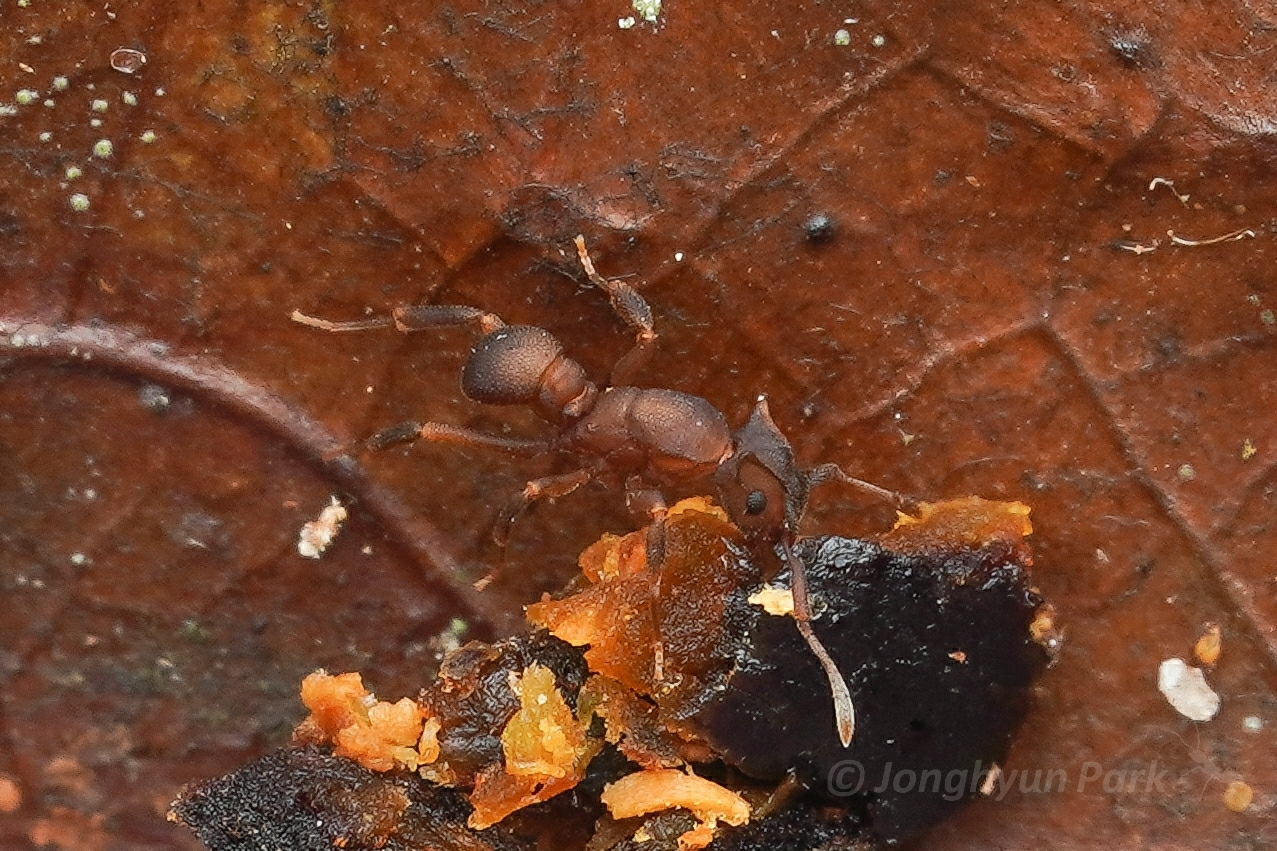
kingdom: Animalia
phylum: Arthropoda
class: Insecta
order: Hymenoptera
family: Formicidae
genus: Cyphomyrmex
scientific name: Cyphomyrmex laevigatus
